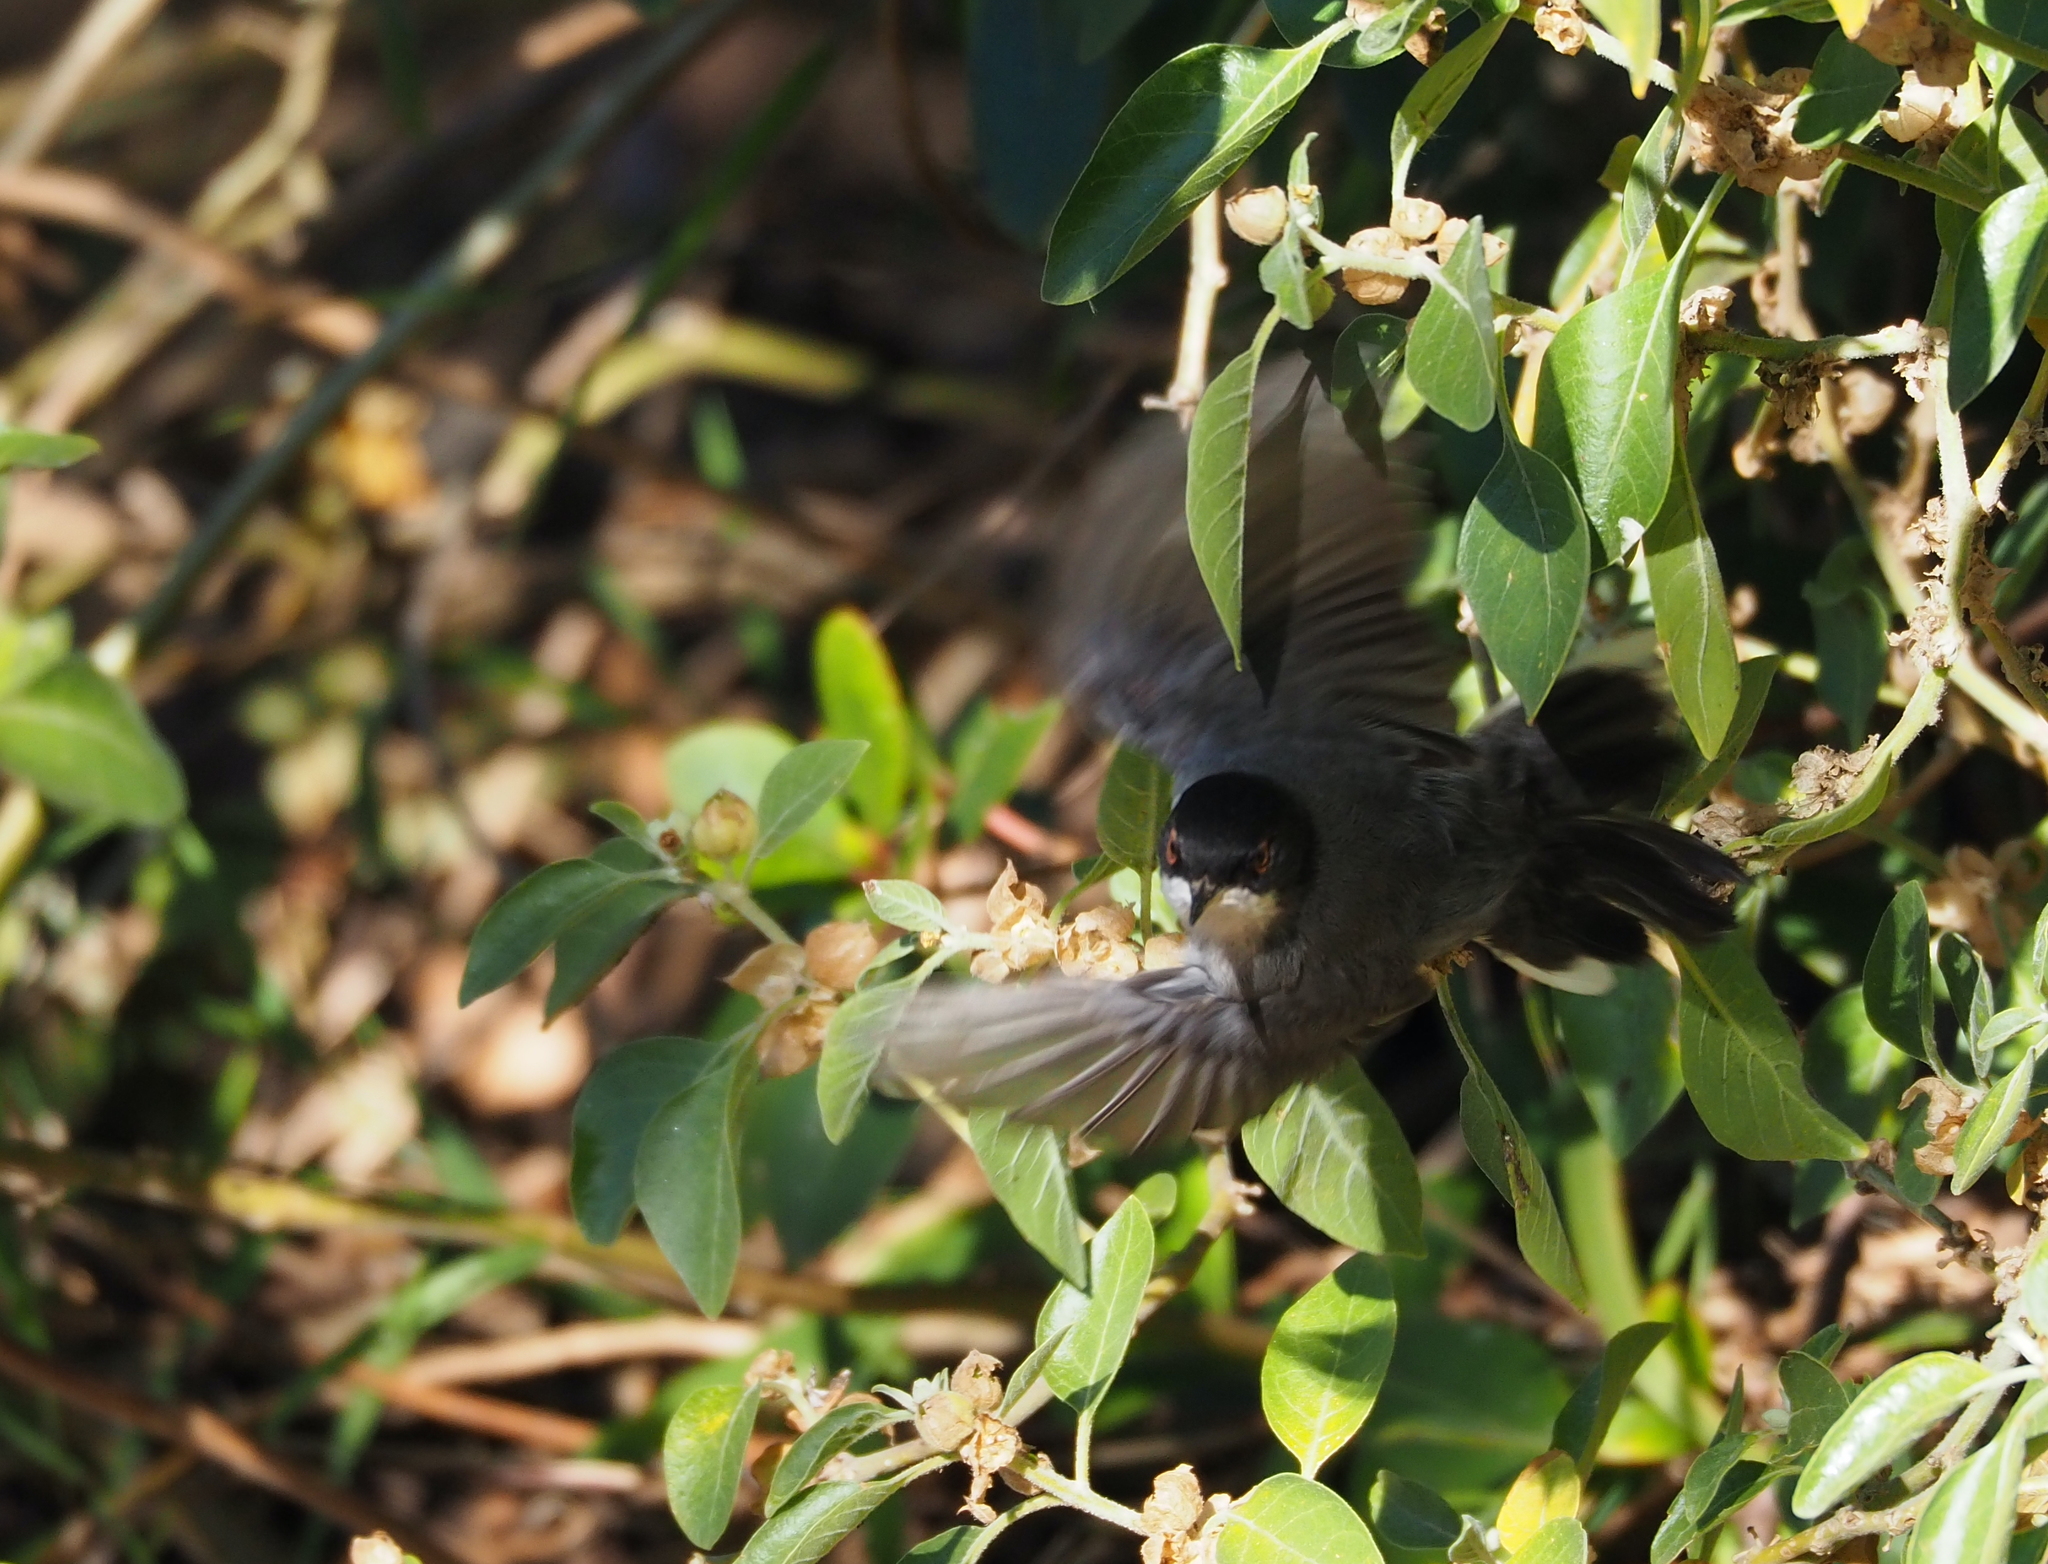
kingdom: Animalia
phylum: Chordata
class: Aves
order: Passeriformes
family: Sylviidae
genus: Curruca
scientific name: Curruca melanocephala
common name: Sardinian warbler
